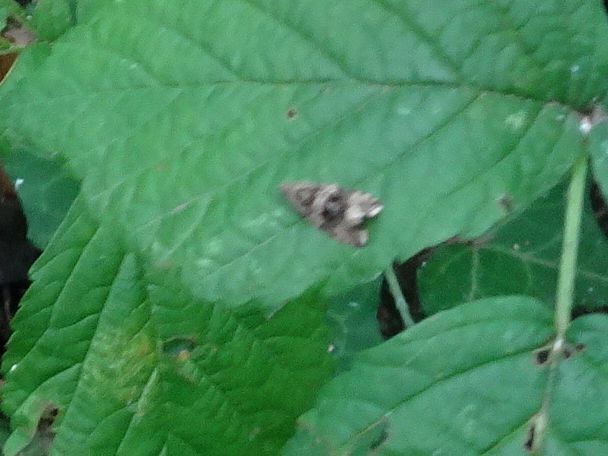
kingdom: Animalia
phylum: Arthropoda
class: Insecta
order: Lepidoptera
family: Tortricidae
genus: Syricoris
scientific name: Syricoris lacunana
